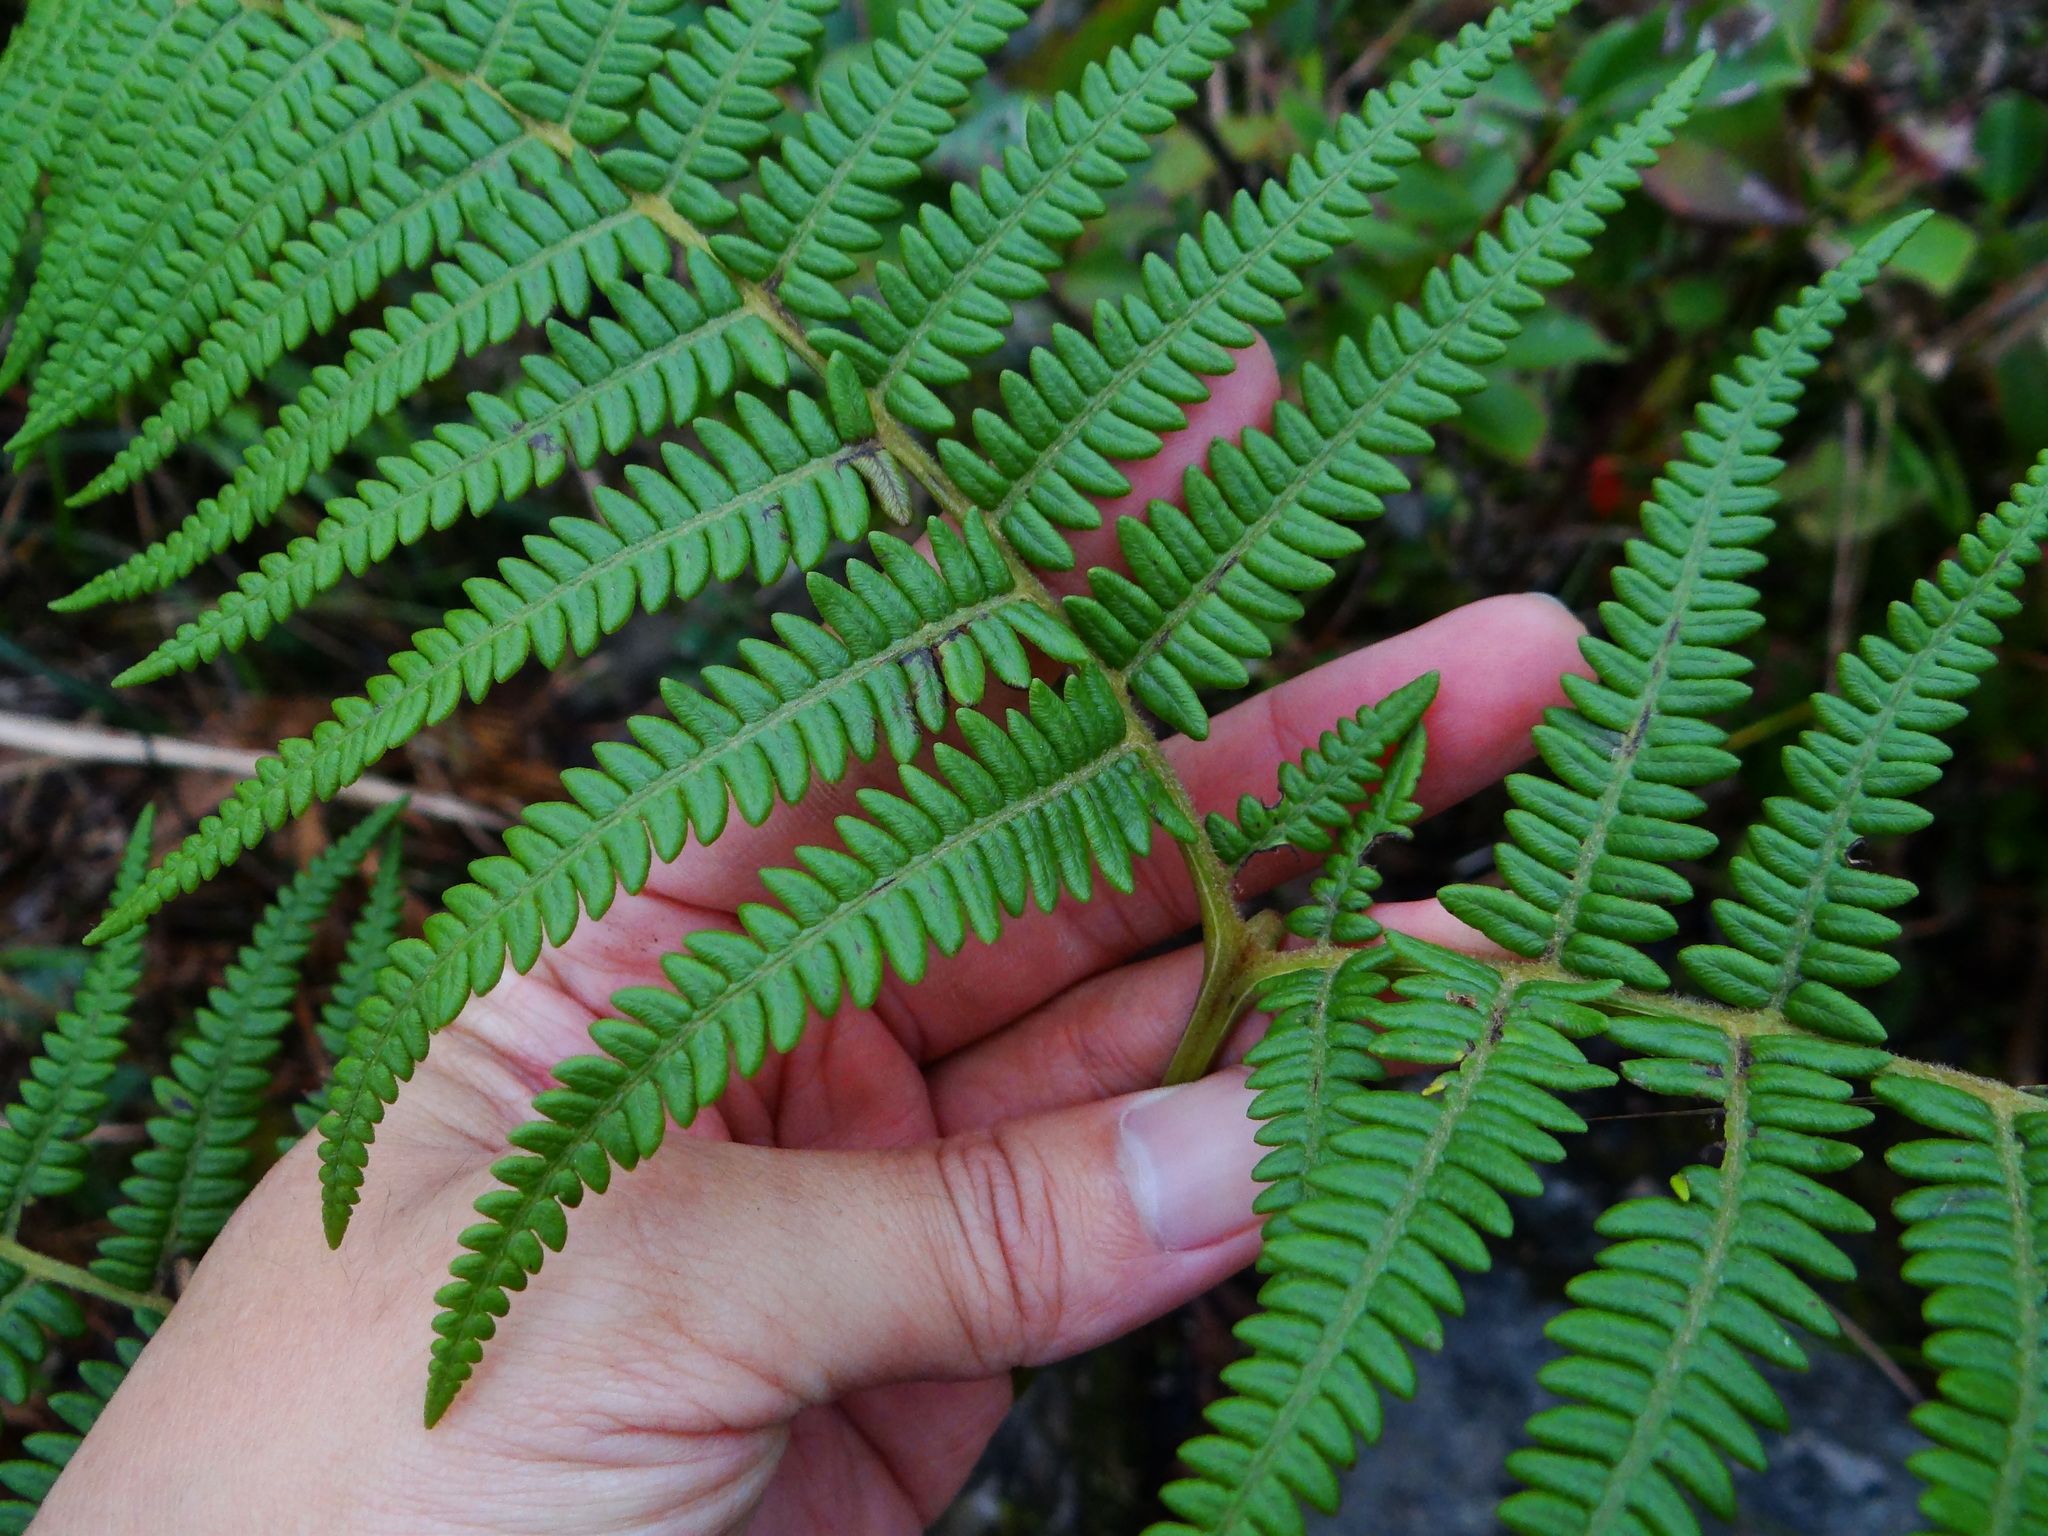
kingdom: Plantae
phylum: Tracheophyta
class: Polypodiopsida
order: Polypodiales
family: Dennstaedtiaceae
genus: Pteridium
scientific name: Pteridium aquilinum
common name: Bracken
